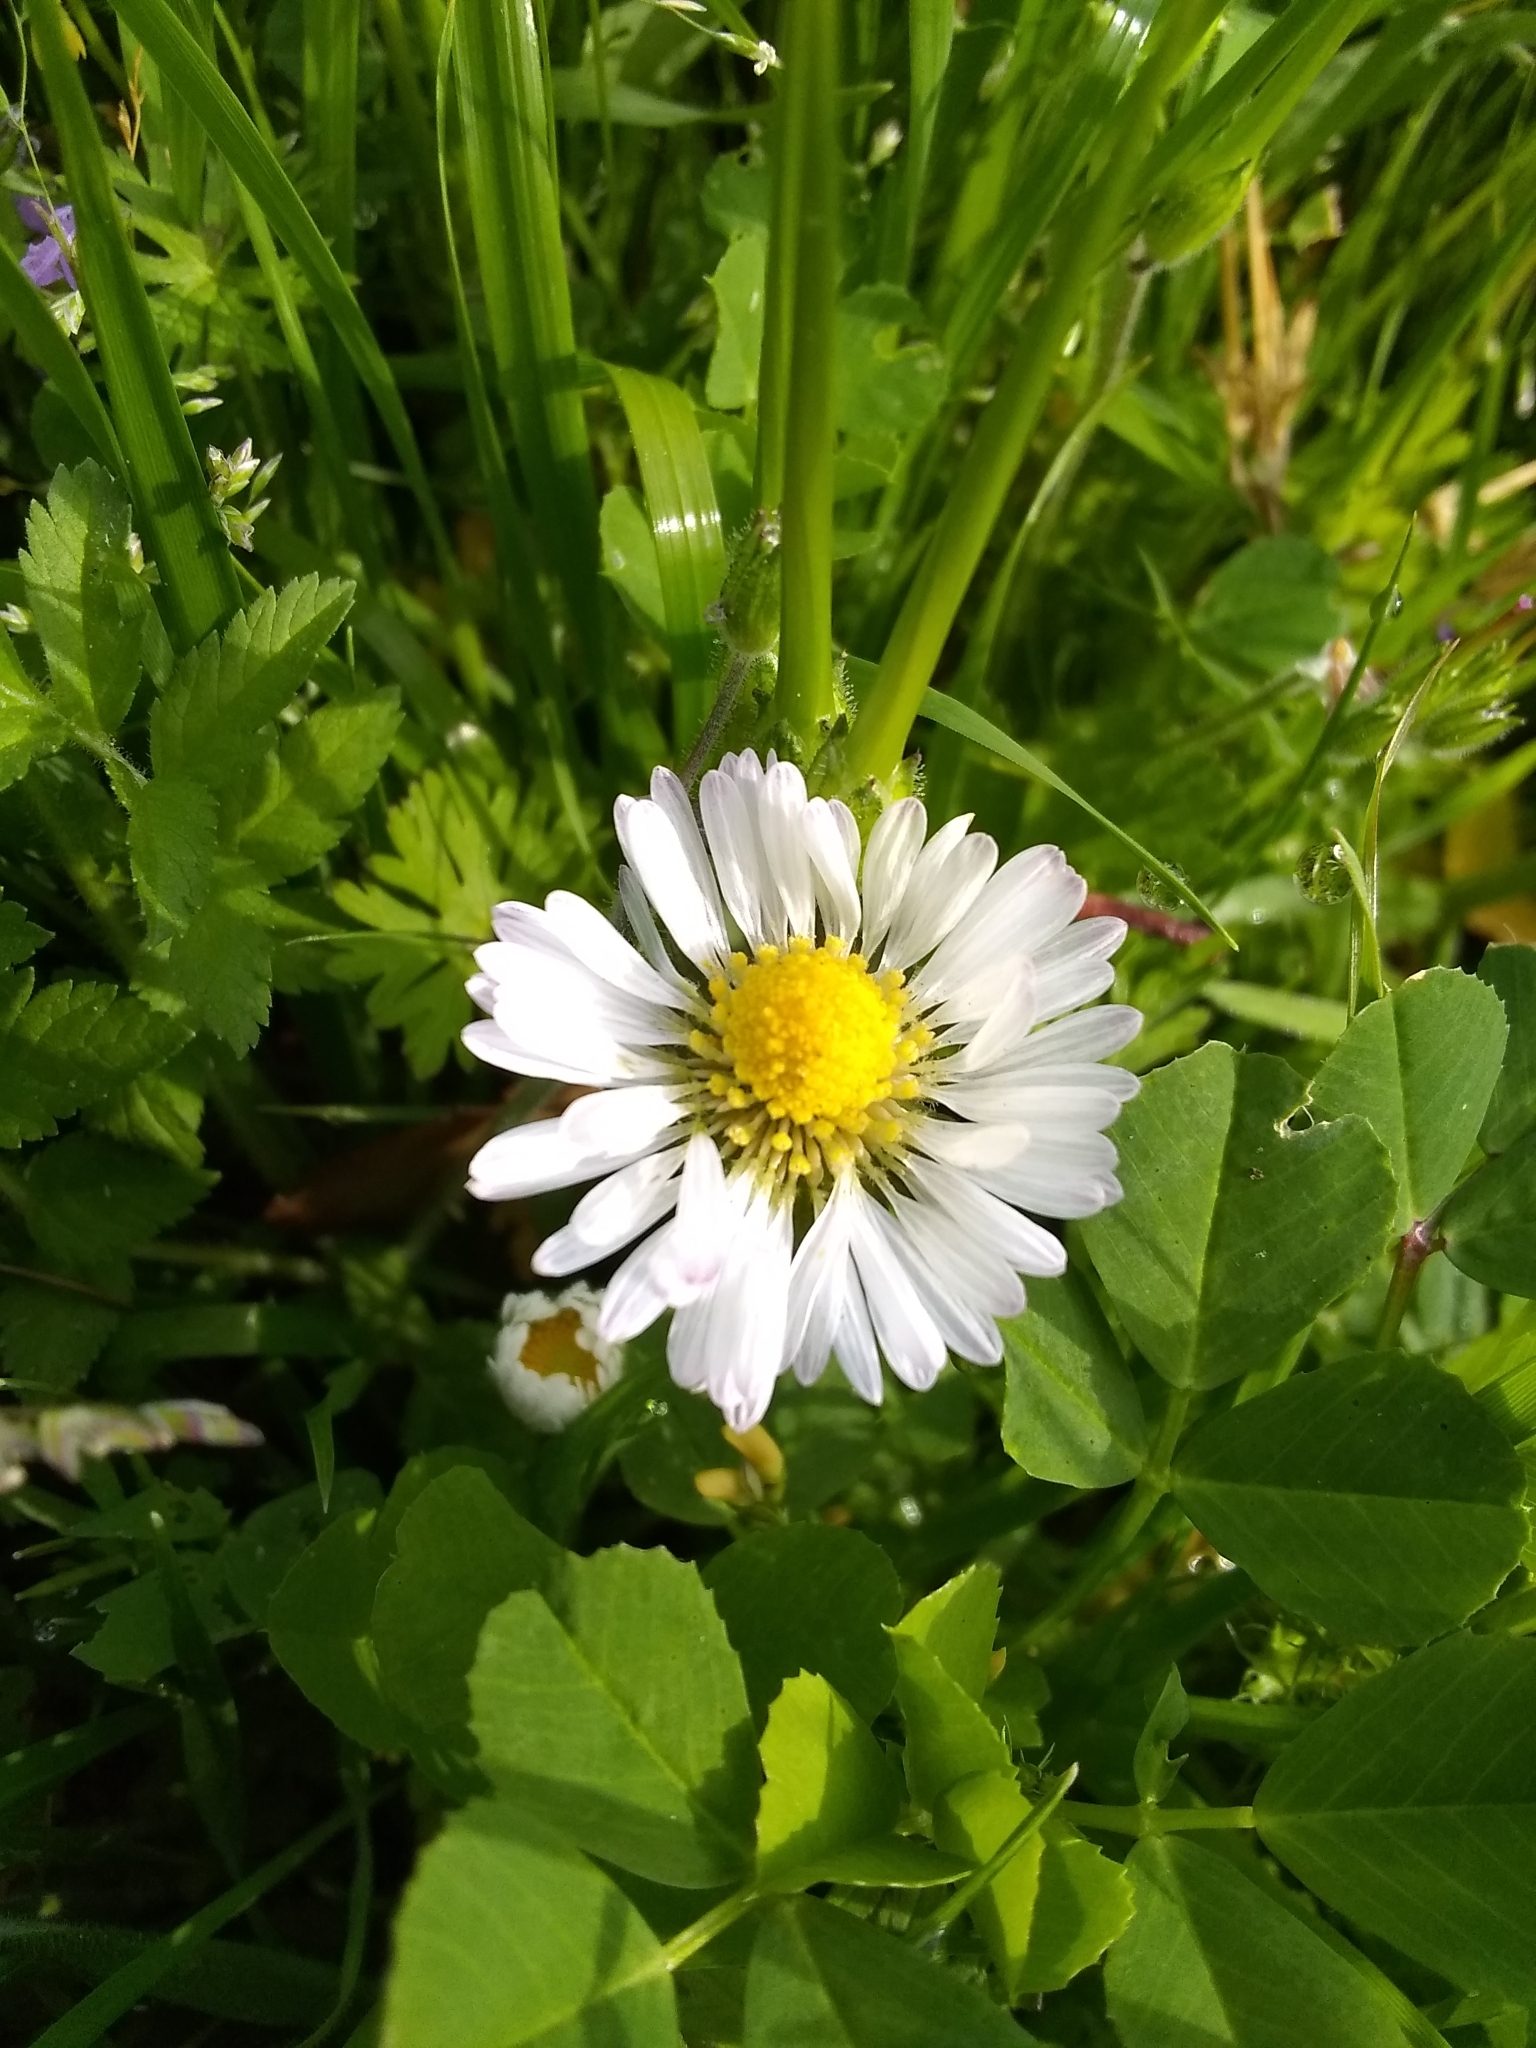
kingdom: Plantae
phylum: Tracheophyta
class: Magnoliopsida
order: Asterales
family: Asteraceae
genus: Bellis
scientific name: Bellis perennis
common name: Lawndaisy
